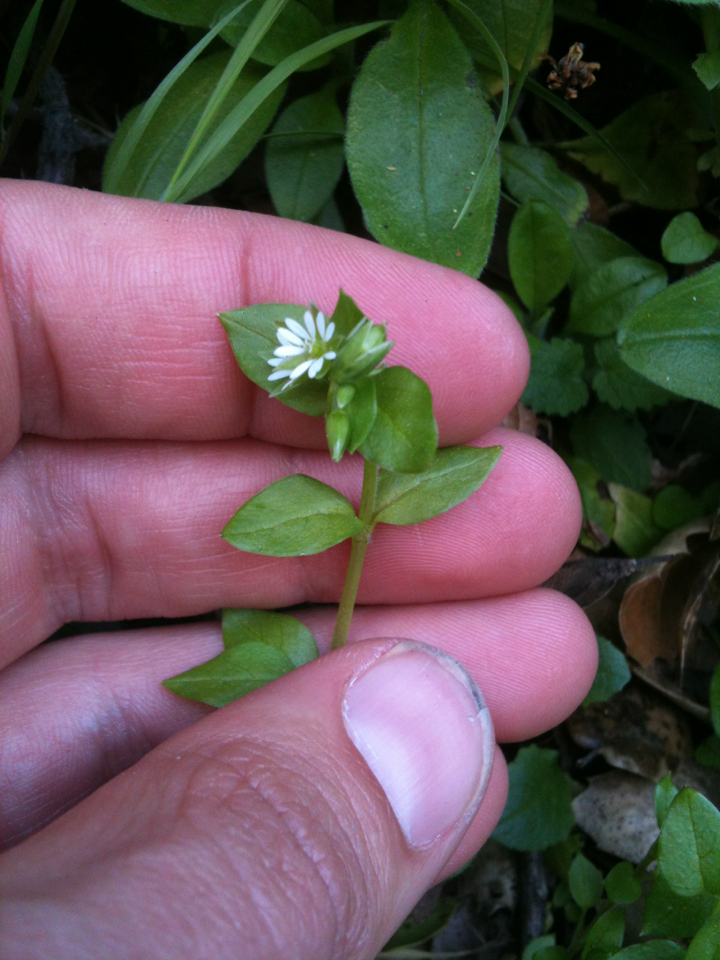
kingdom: Plantae
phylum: Tracheophyta
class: Magnoliopsida
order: Caryophyllales
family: Caryophyllaceae
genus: Stellaria
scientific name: Stellaria media
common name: Common chickweed
